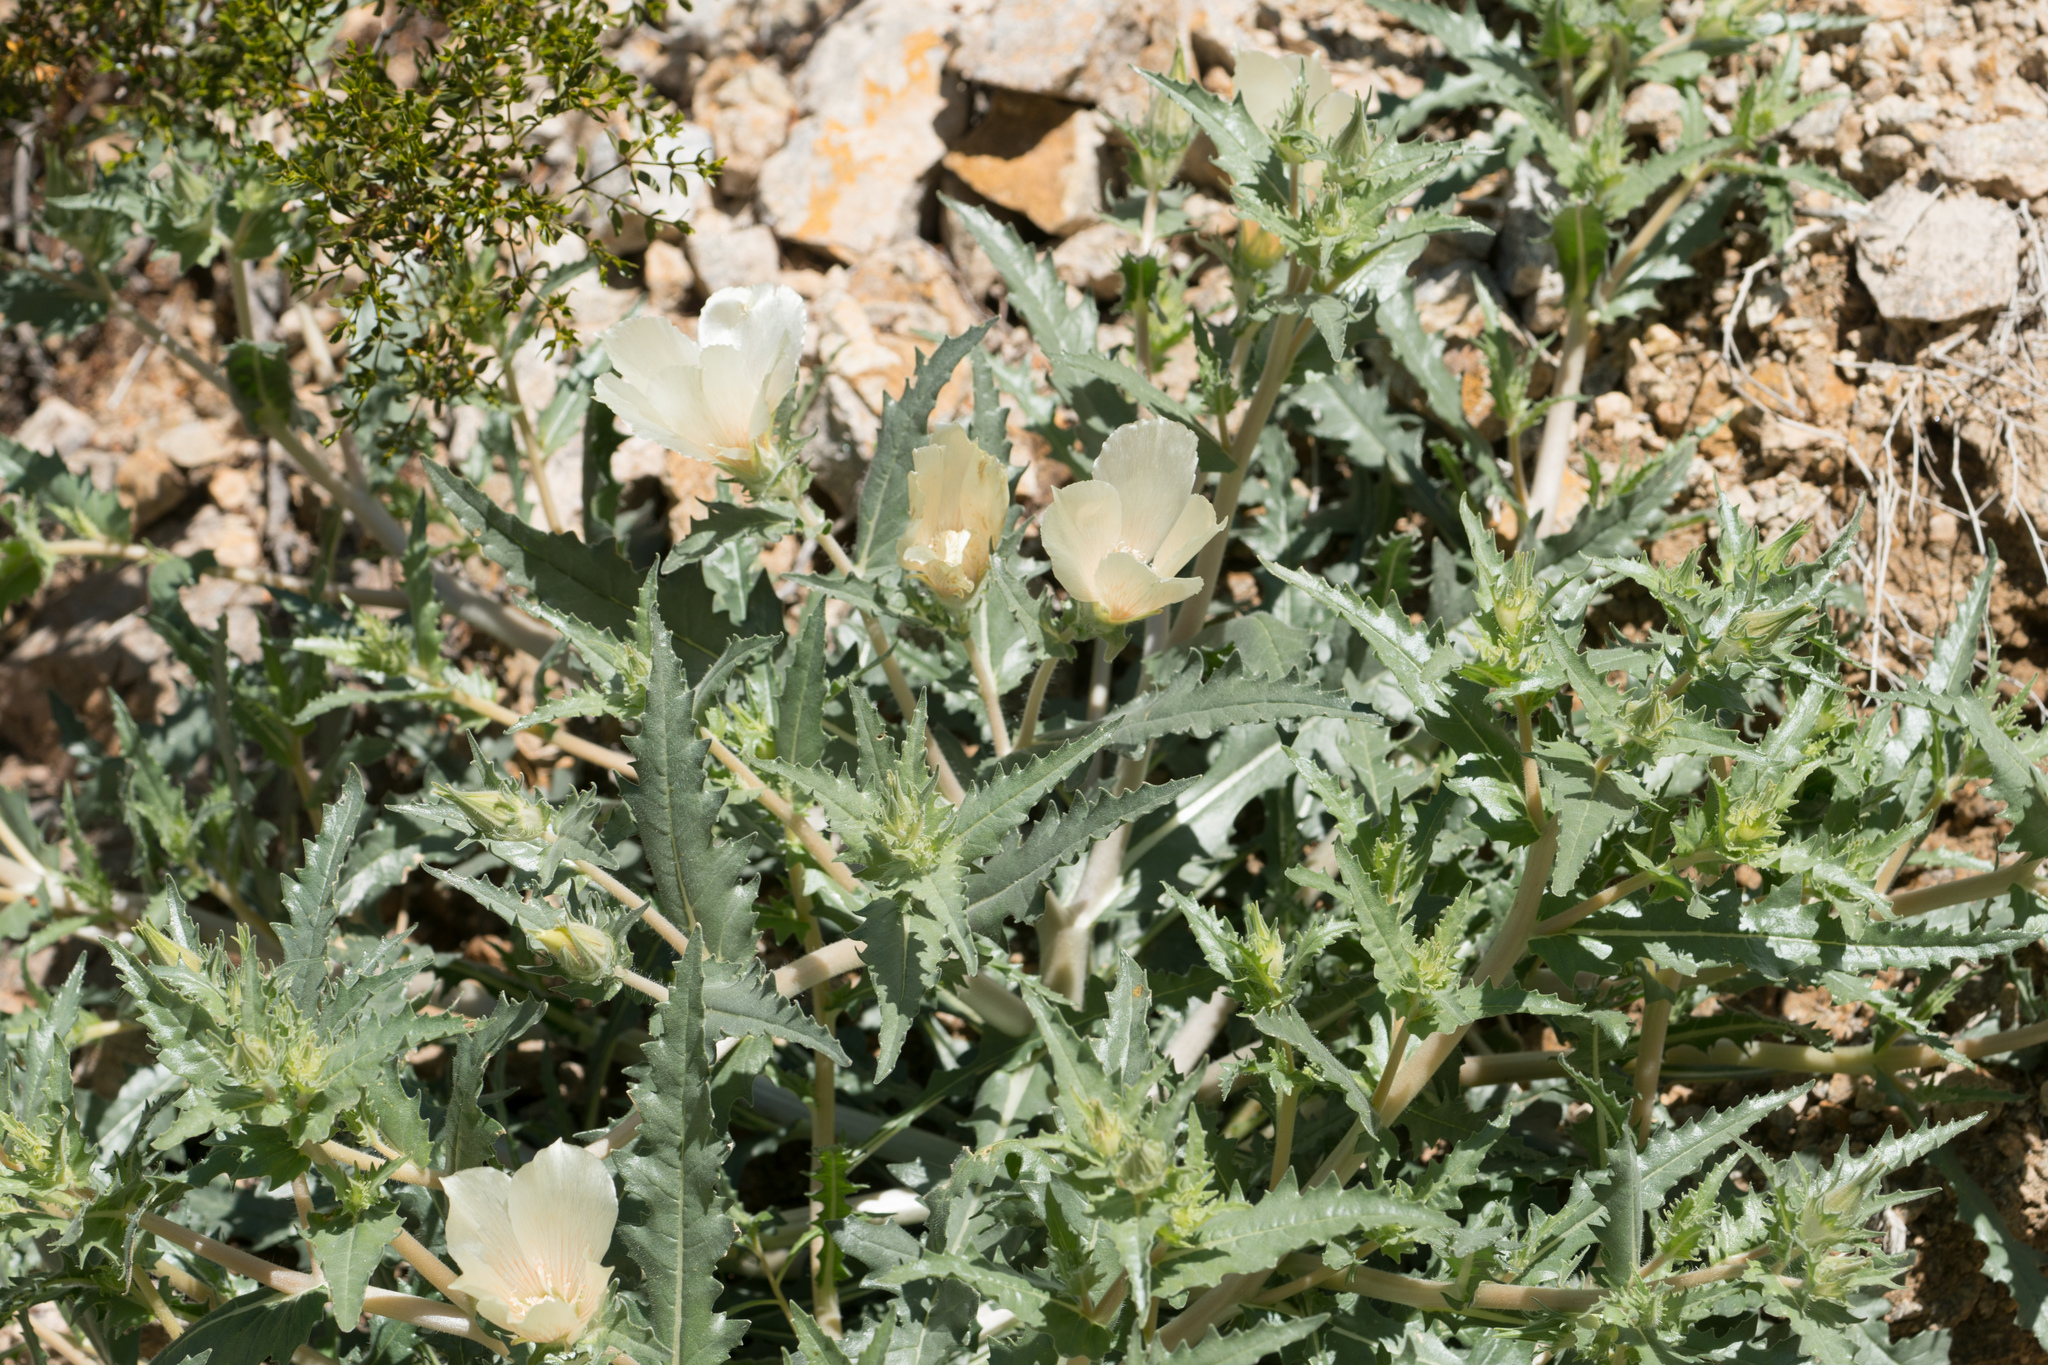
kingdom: Plantae
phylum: Tracheophyta
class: Magnoliopsida
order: Cornales
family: Loasaceae
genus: Mentzelia
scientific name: Mentzelia involucrata
